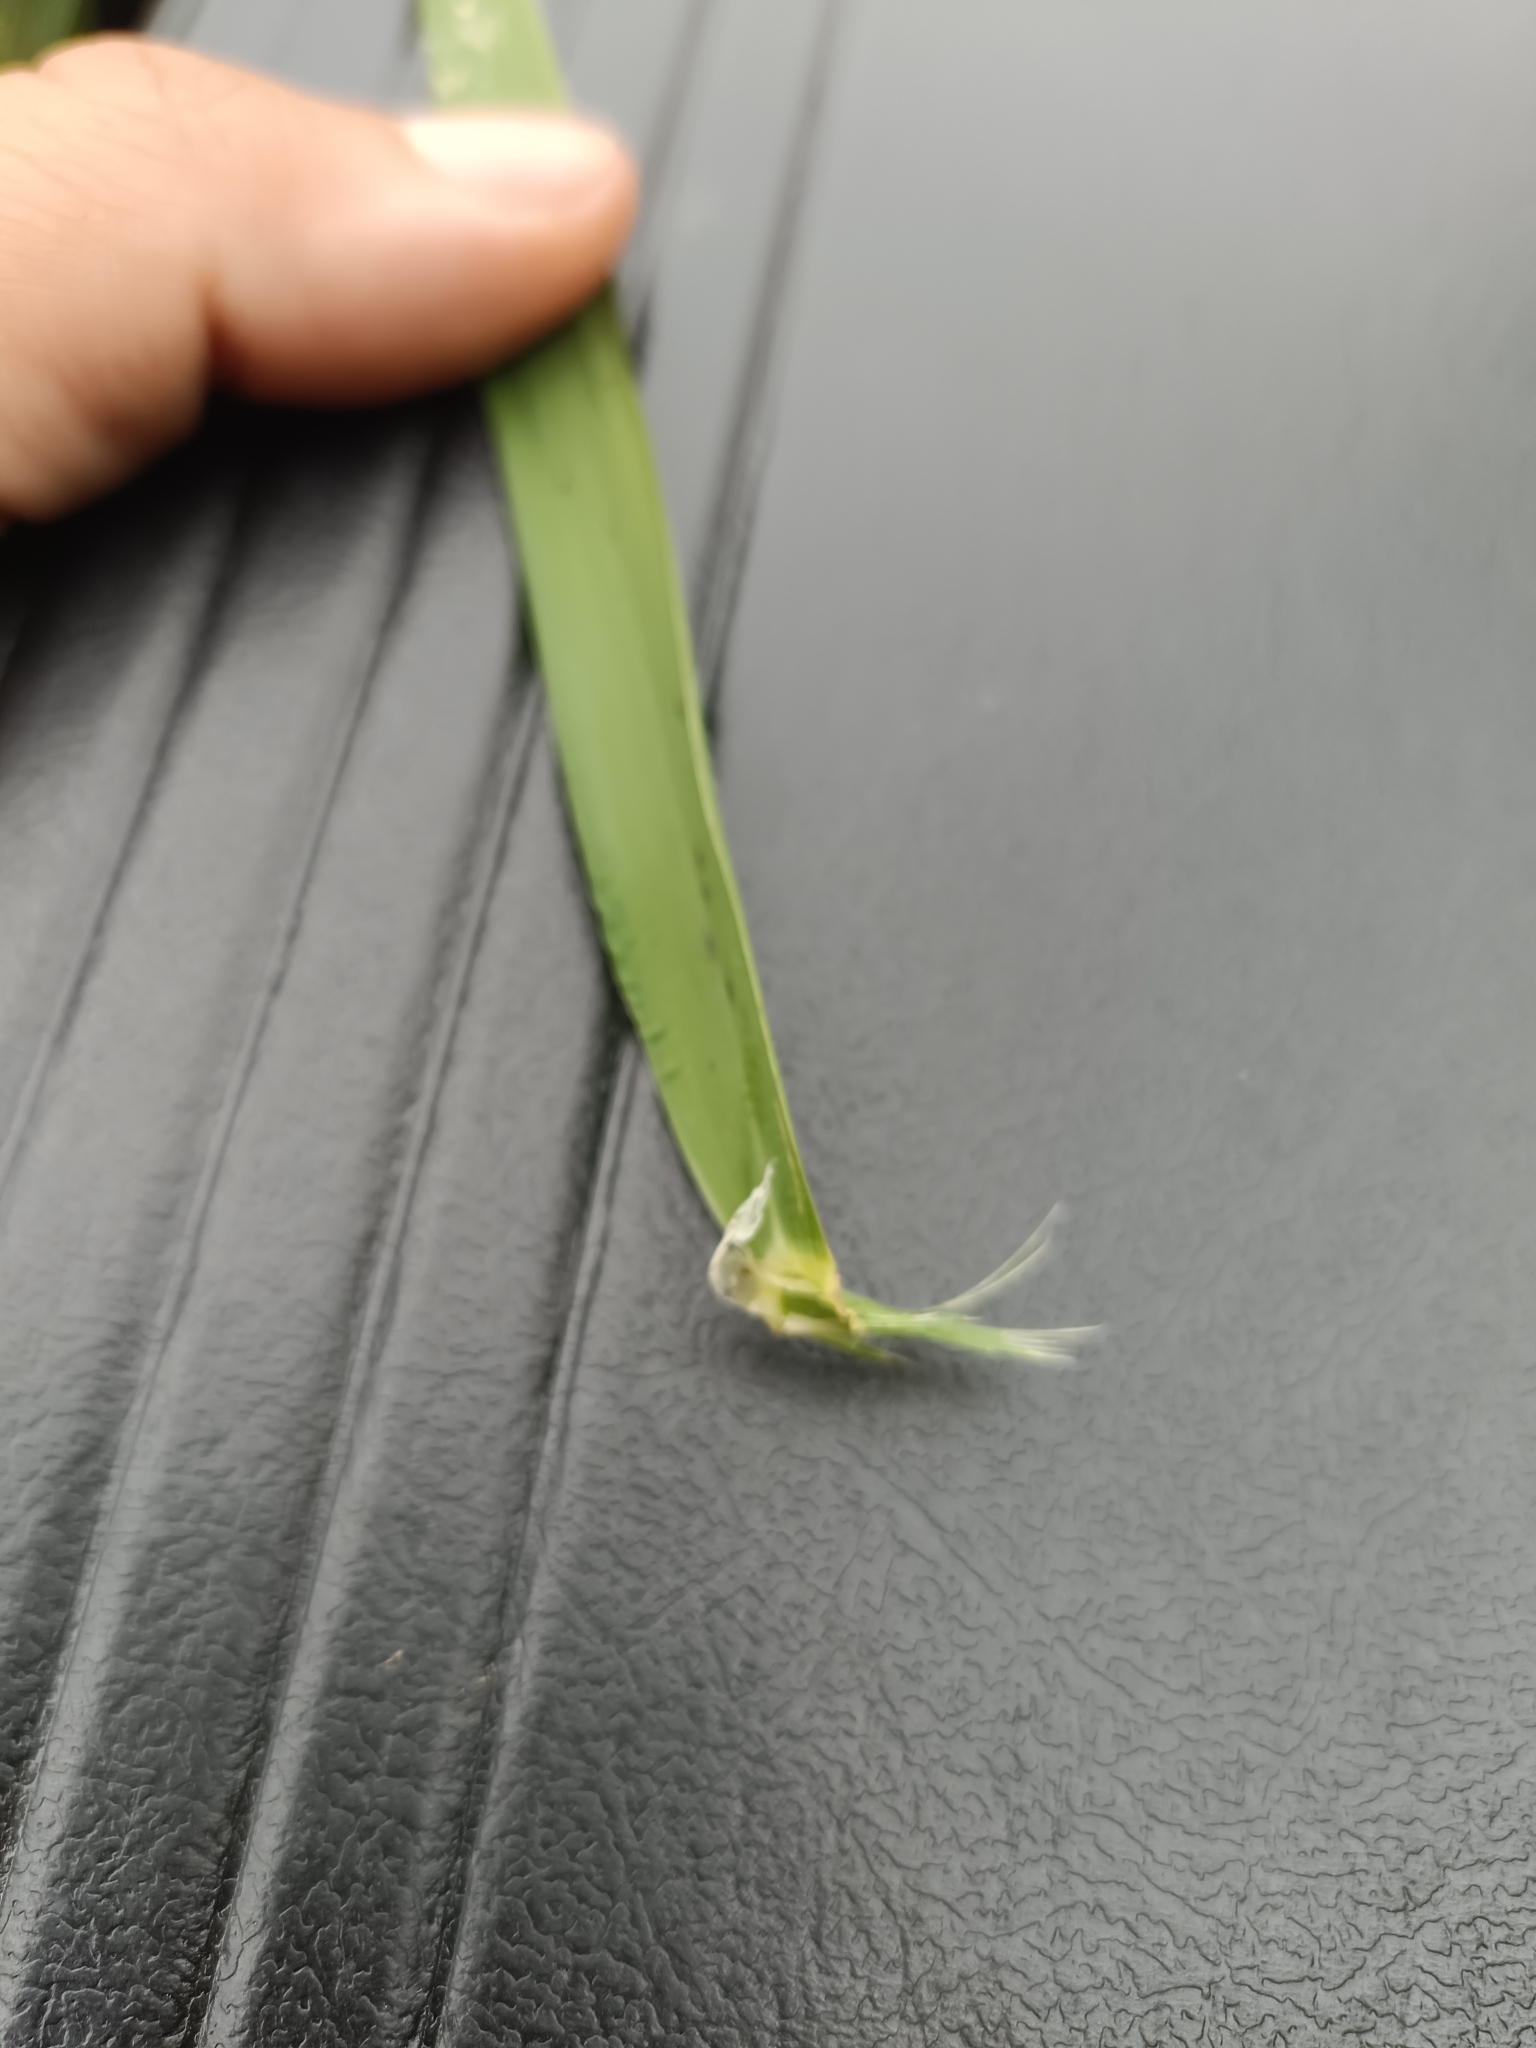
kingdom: Plantae
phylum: Tracheophyta
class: Liliopsida
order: Poales
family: Poaceae
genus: Phalaris
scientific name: Phalaris arundinacea
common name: Reed canary-grass
